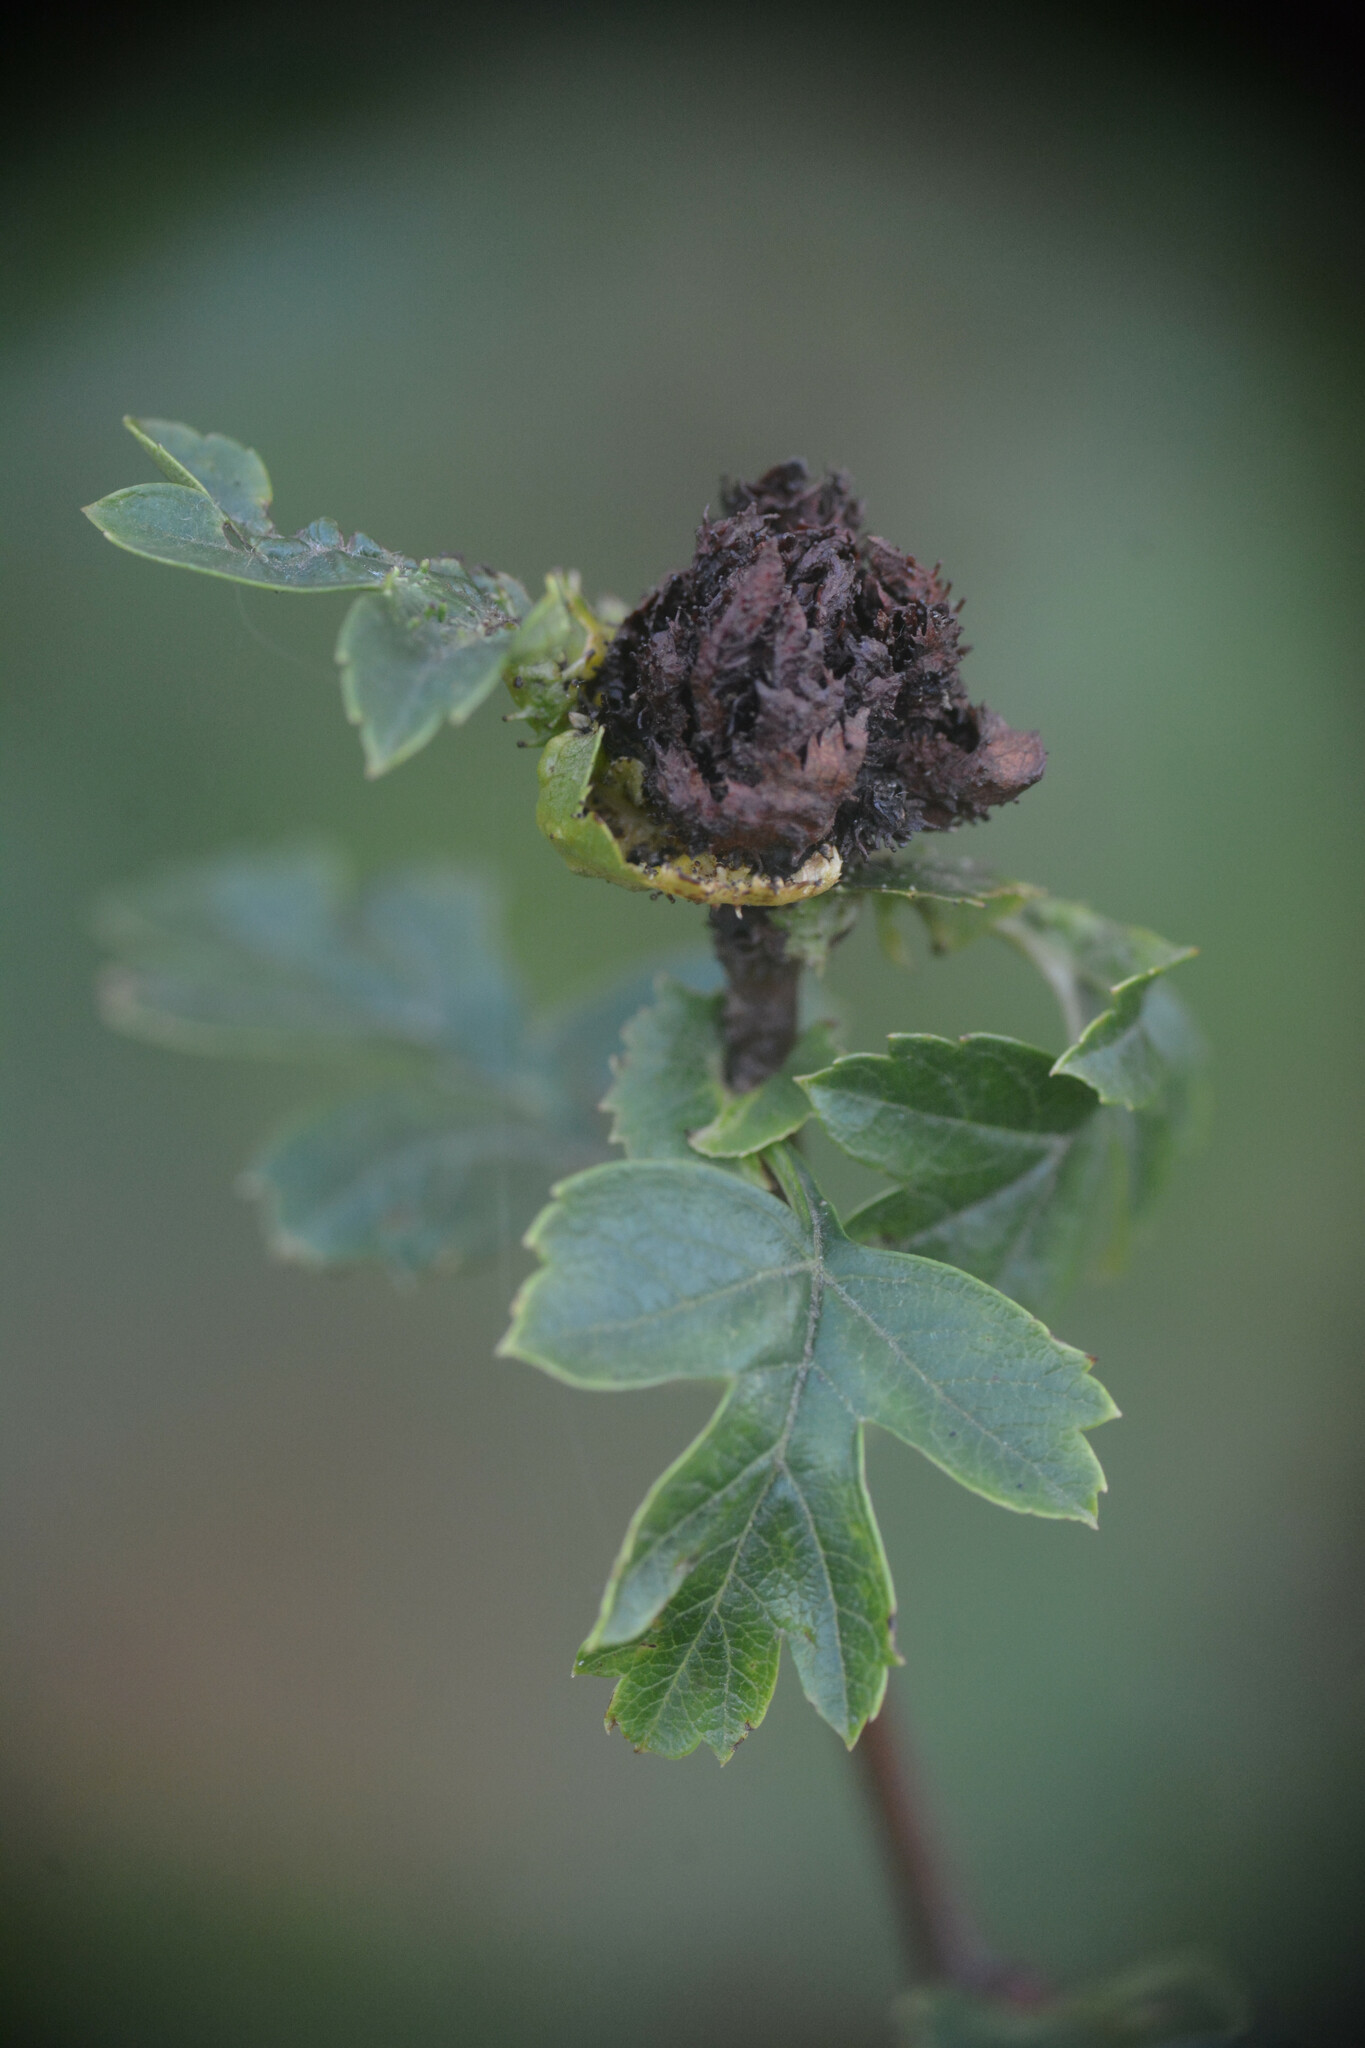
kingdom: Animalia
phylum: Arthropoda
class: Insecta
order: Diptera
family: Cecidomyiidae
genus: Dasineura
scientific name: Dasineura crataegi
